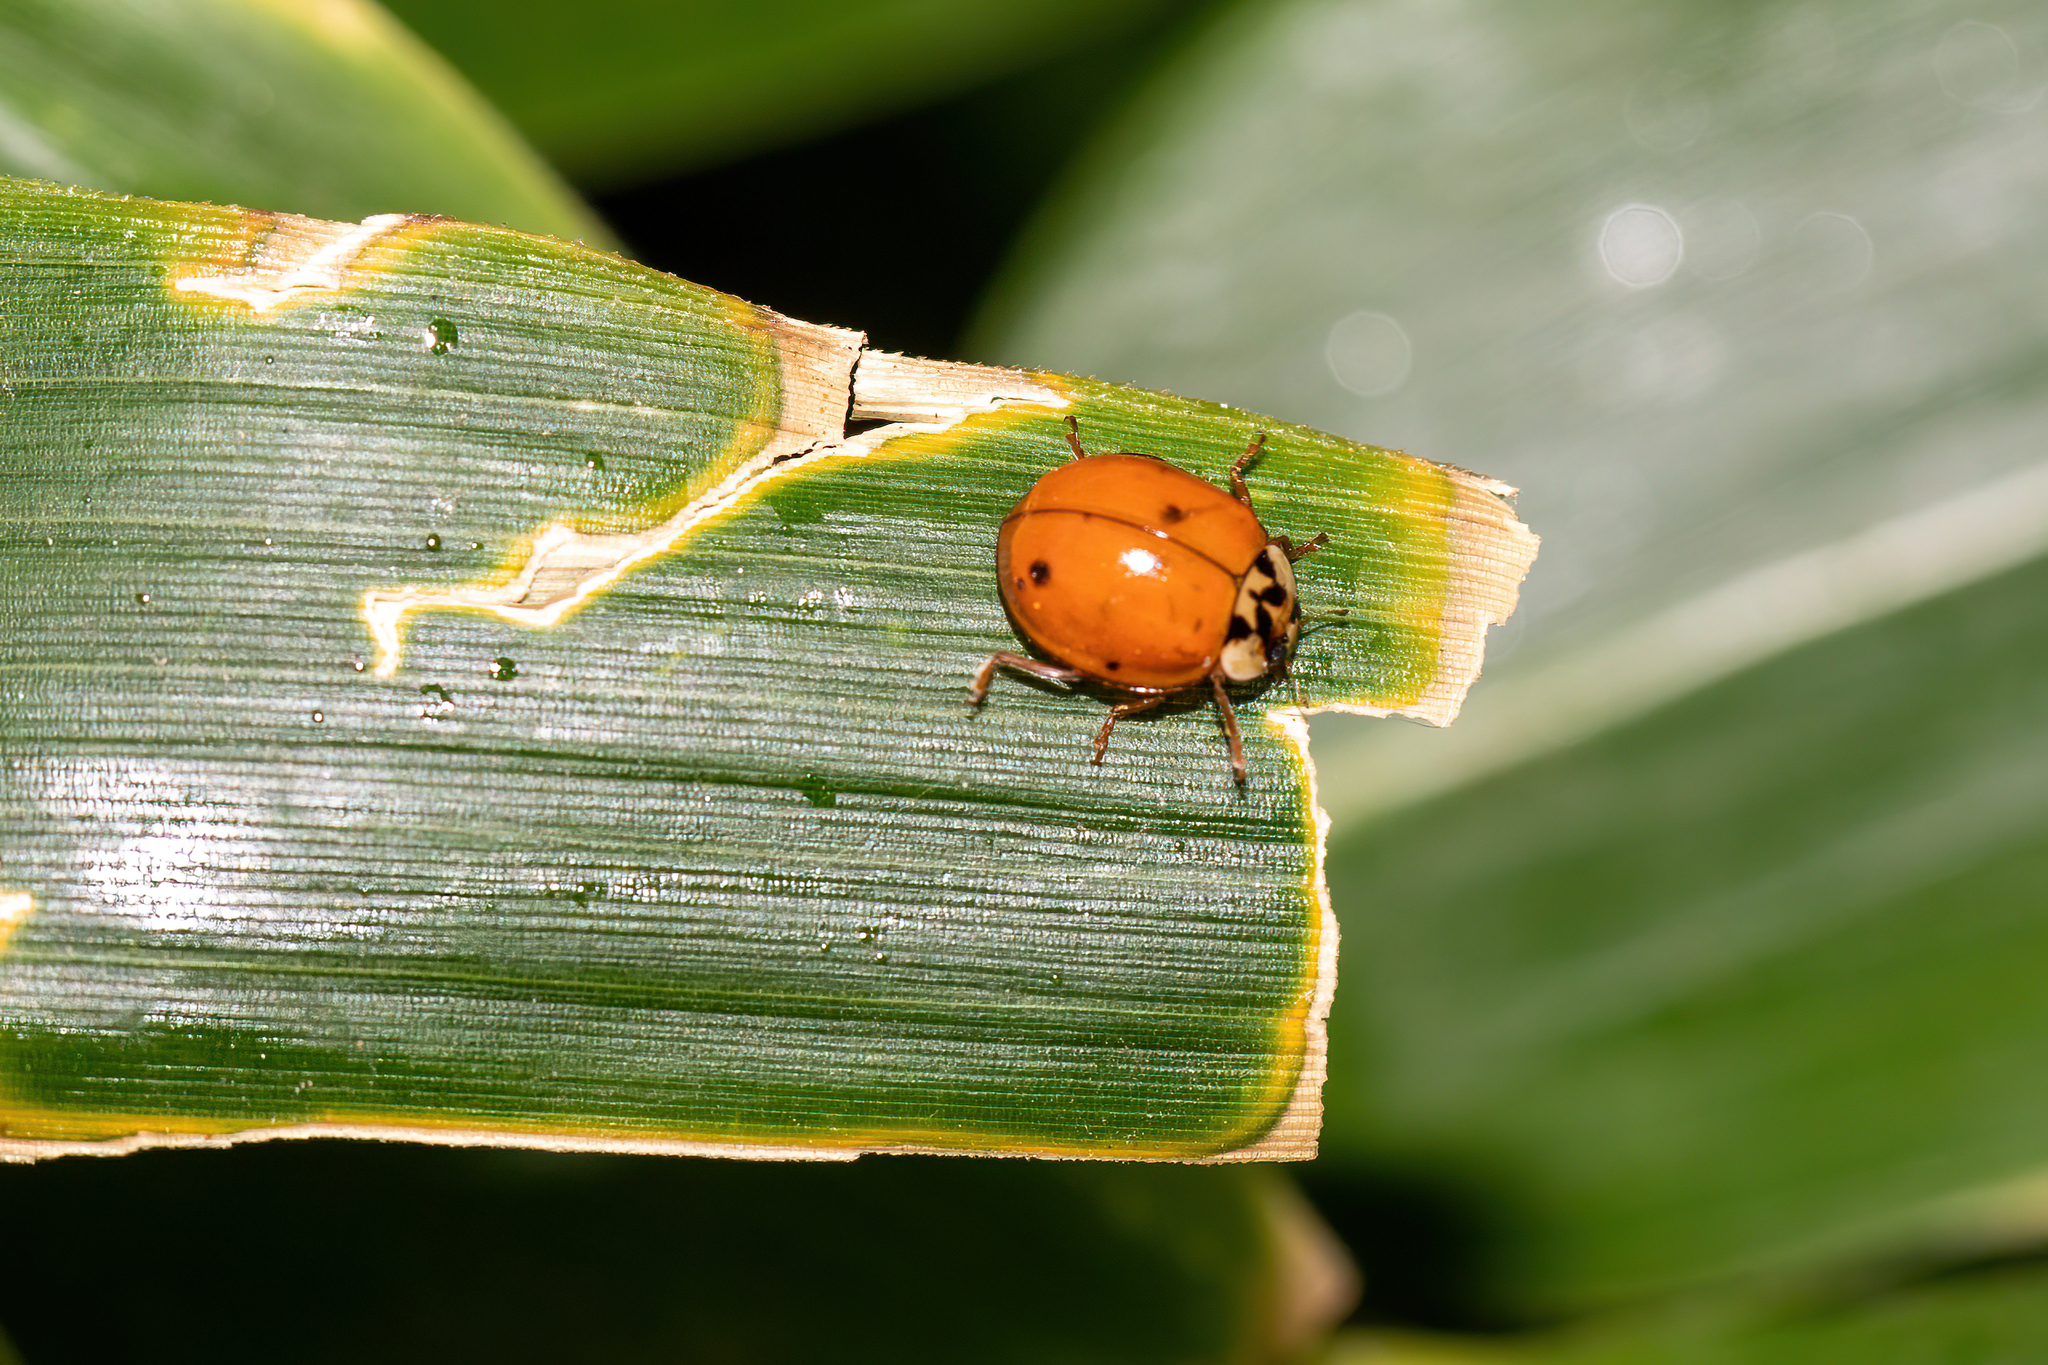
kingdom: Animalia
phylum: Arthropoda
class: Insecta
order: Coleoptera
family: Coccinellidae
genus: Harmonia
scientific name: Harmonia axyridis
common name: Harlequin ladybird
